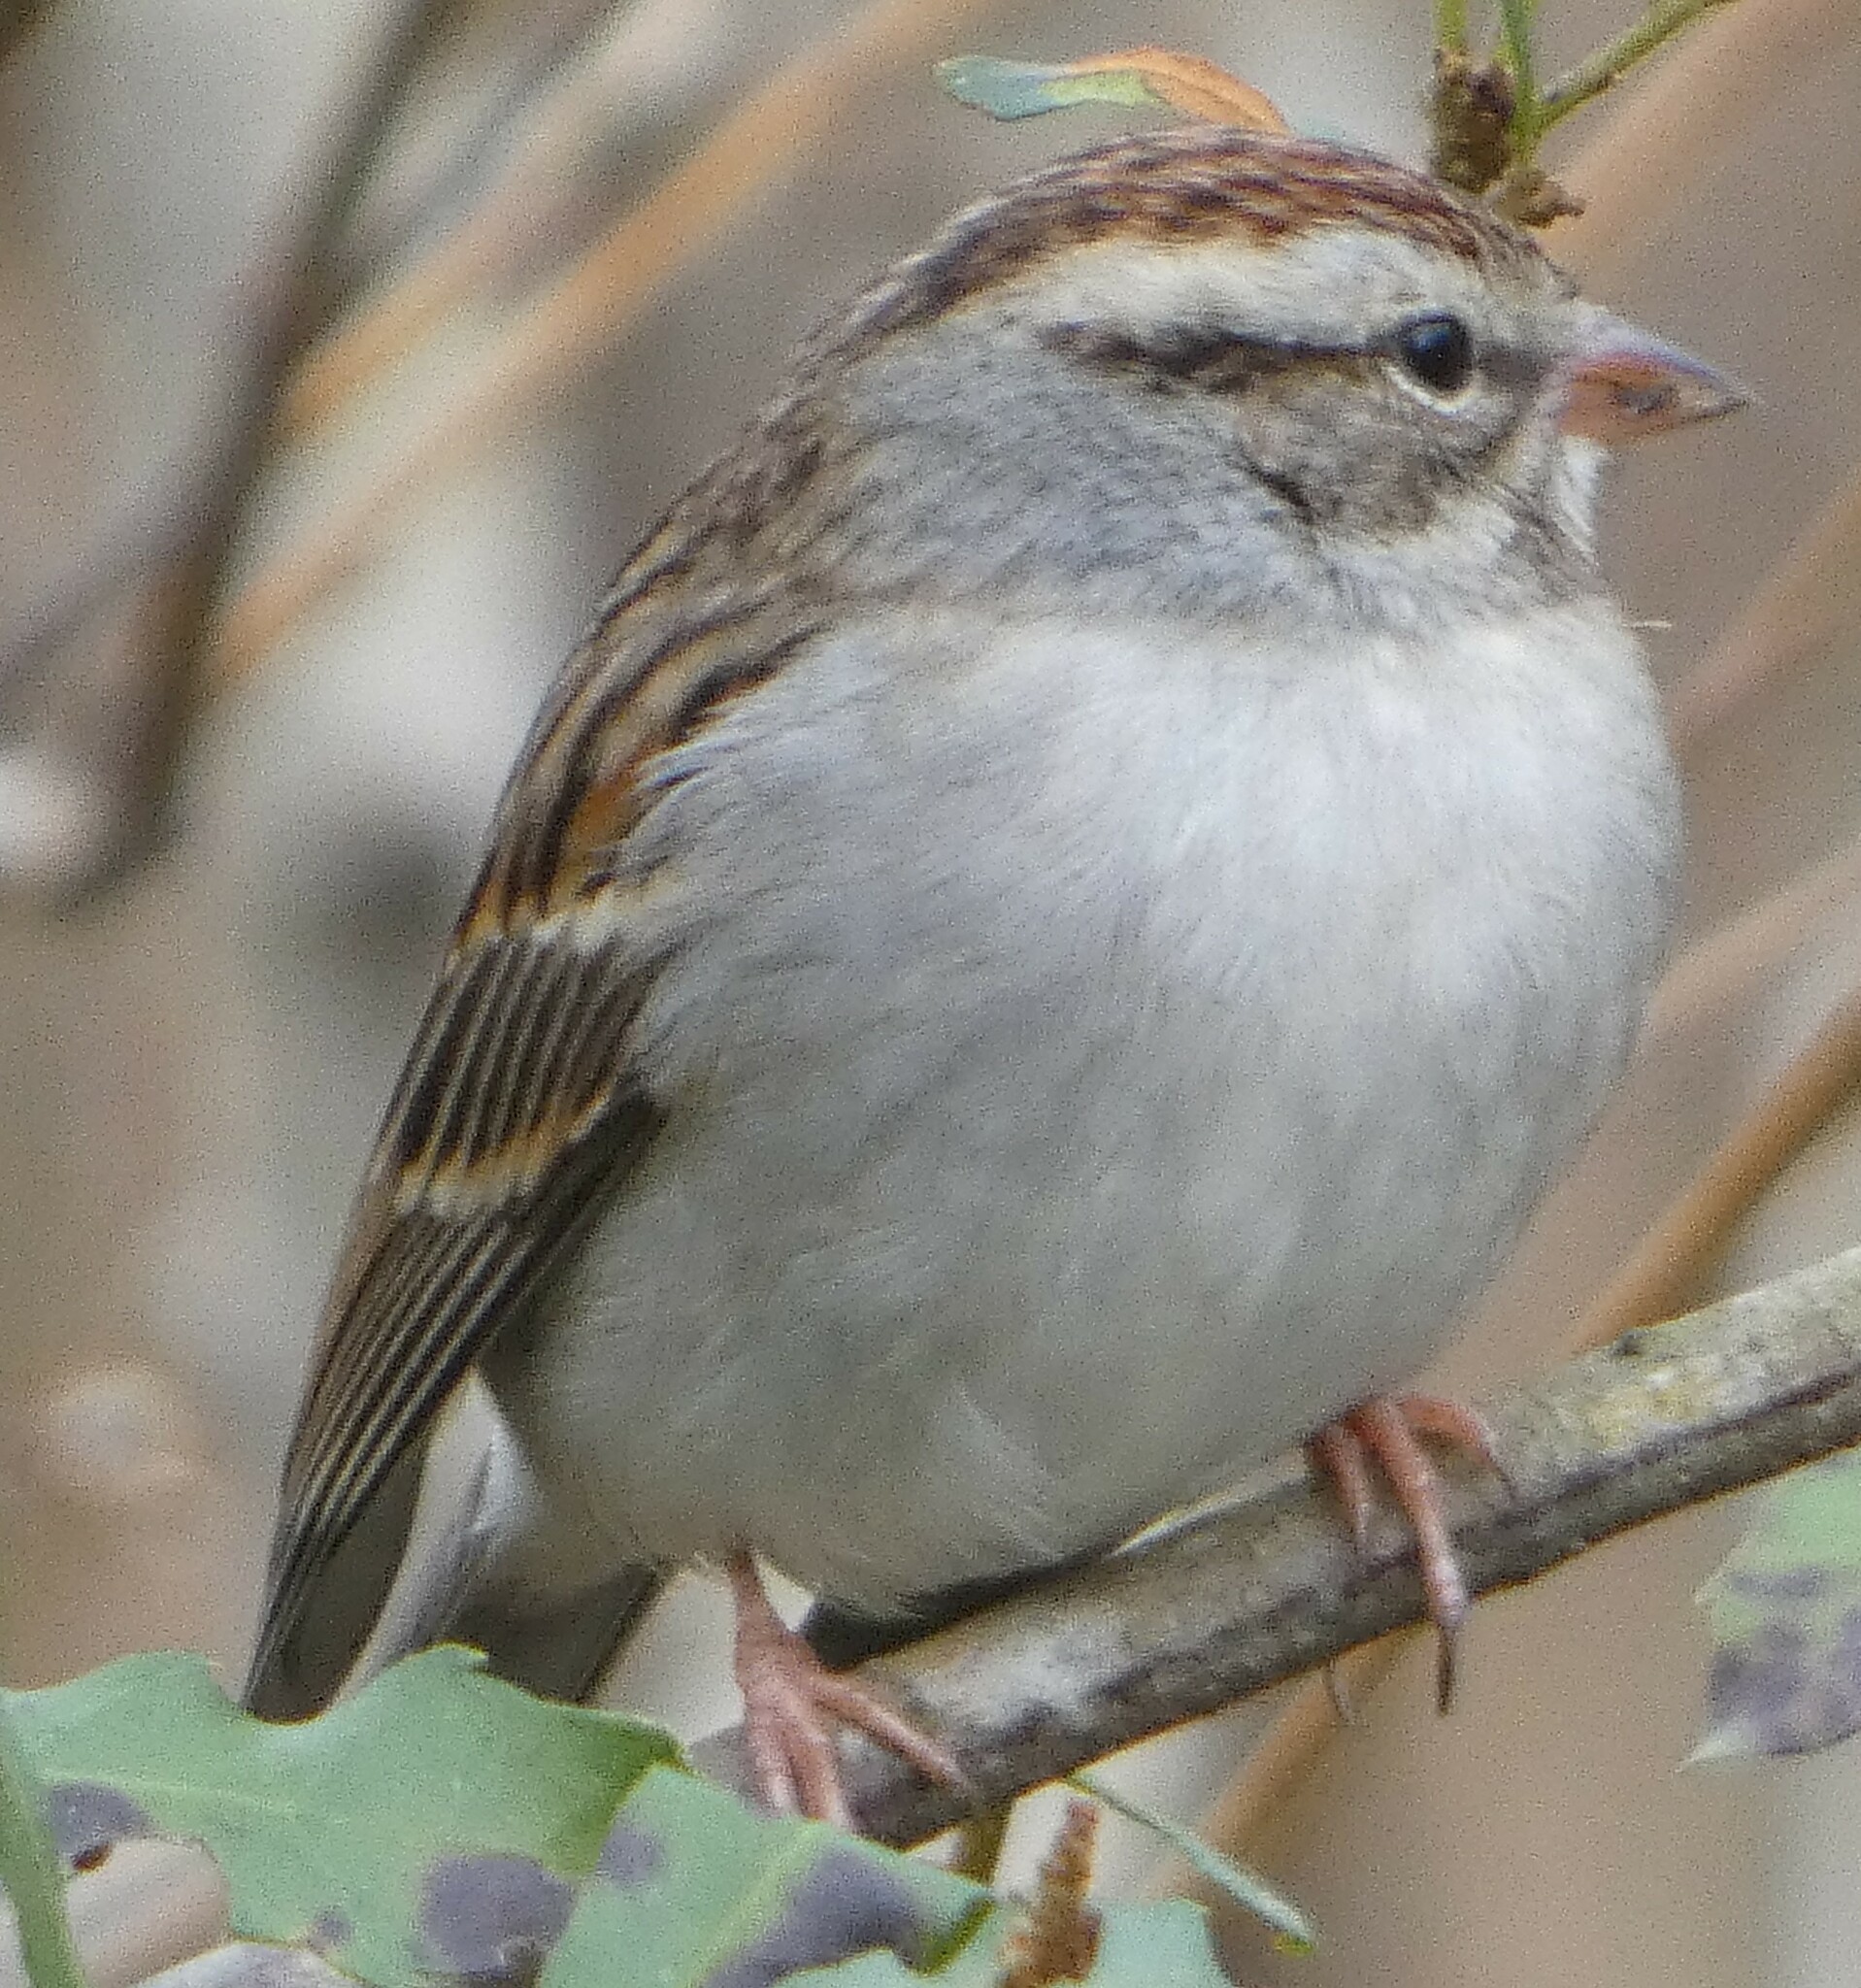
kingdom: Animalia
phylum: Chordata
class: Aves
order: Passeriformes
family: Passerellidae
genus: Spizella
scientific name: Spizella passerina
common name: Chipping sparrow
